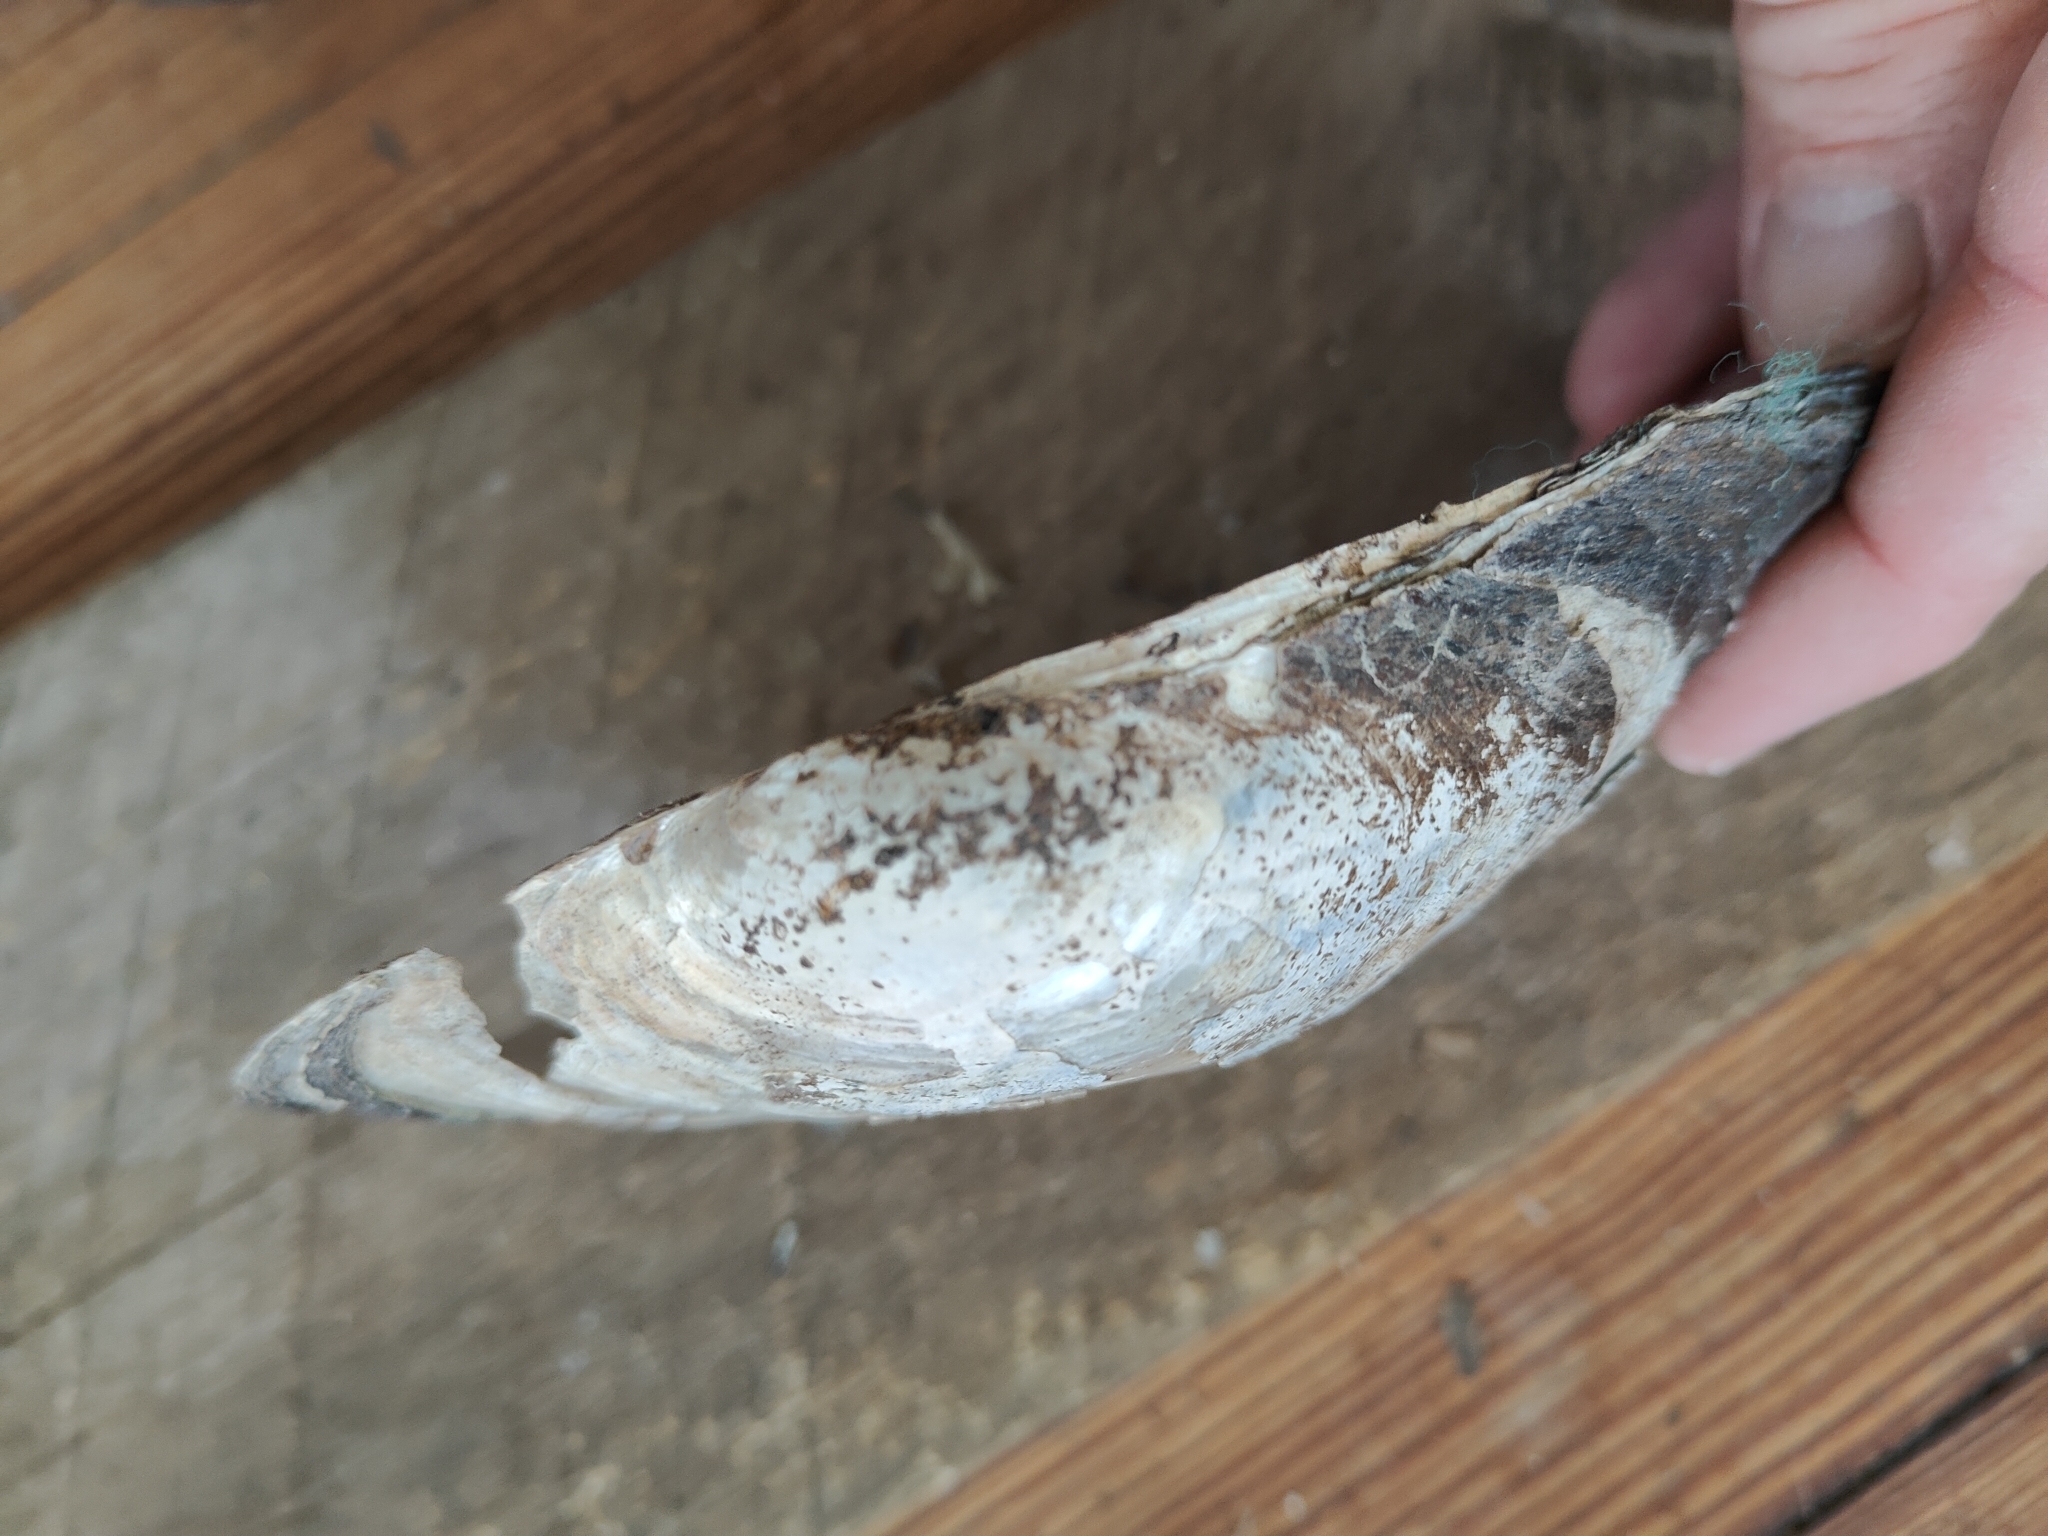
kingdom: Animalia
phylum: Mollusca
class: Bivalvia
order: Unionida
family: Unionidae
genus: Pyganodon
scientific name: Pyganodon grandis
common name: Giant floater
